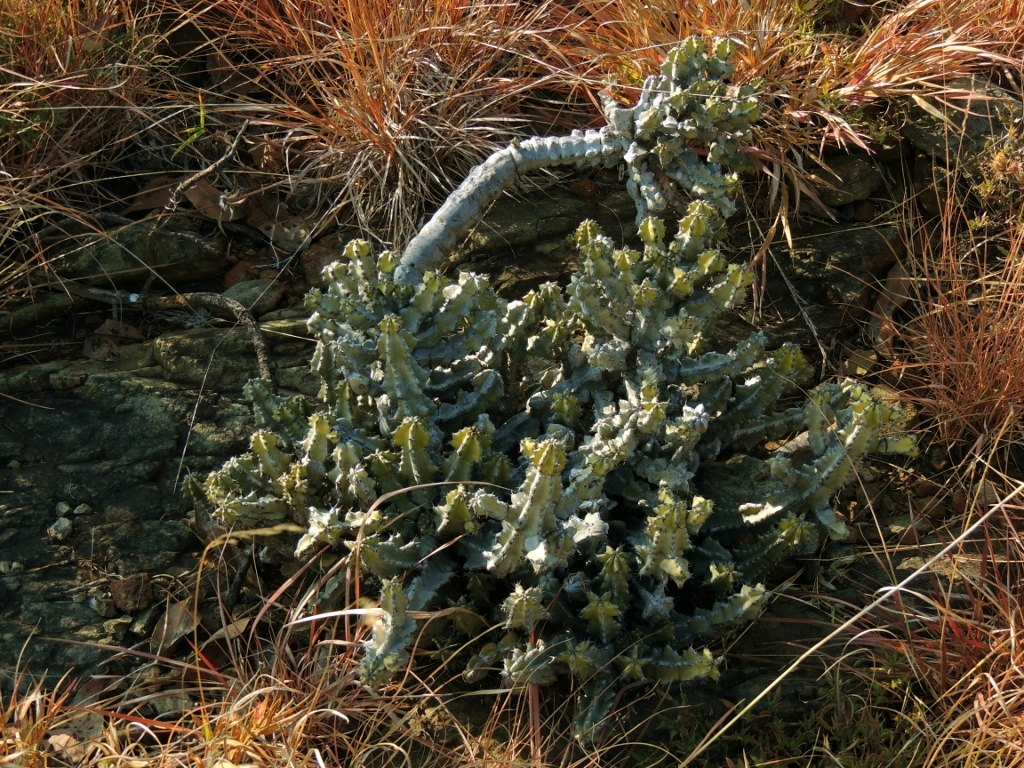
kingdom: Plantae
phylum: Tracheophyta
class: Magnoliopsida
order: Malpighiales
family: Euphorbiaceae
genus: Euphorbia
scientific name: Euphorbia memoralis
